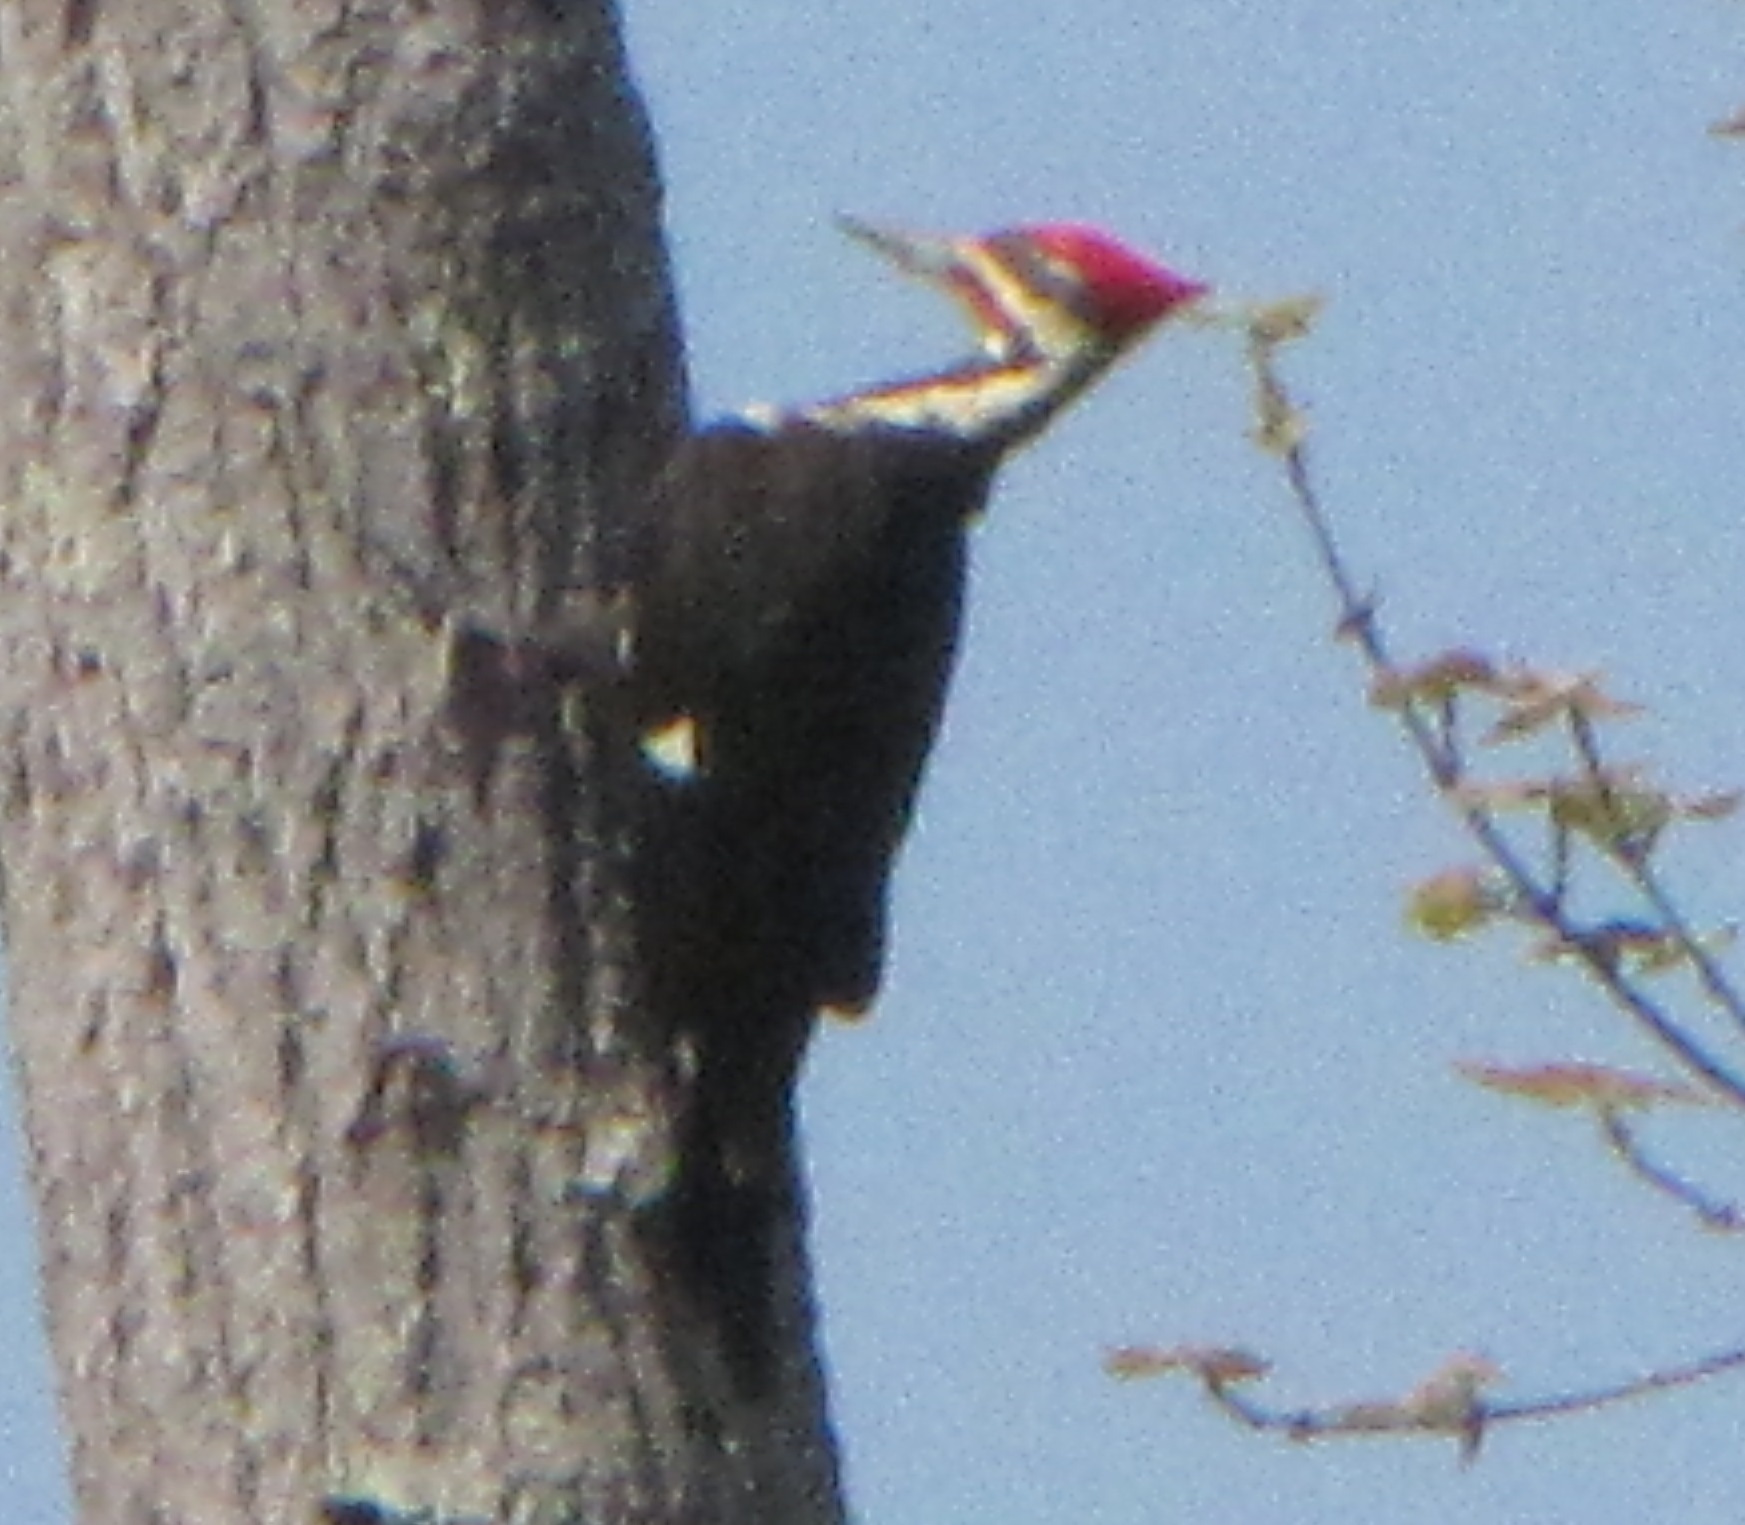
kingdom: Animalia
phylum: Chordata
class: Aves
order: Piciformes
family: Picidae
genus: Dryocopus
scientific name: Dryocopus pileatus
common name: Pileated woodpecker
